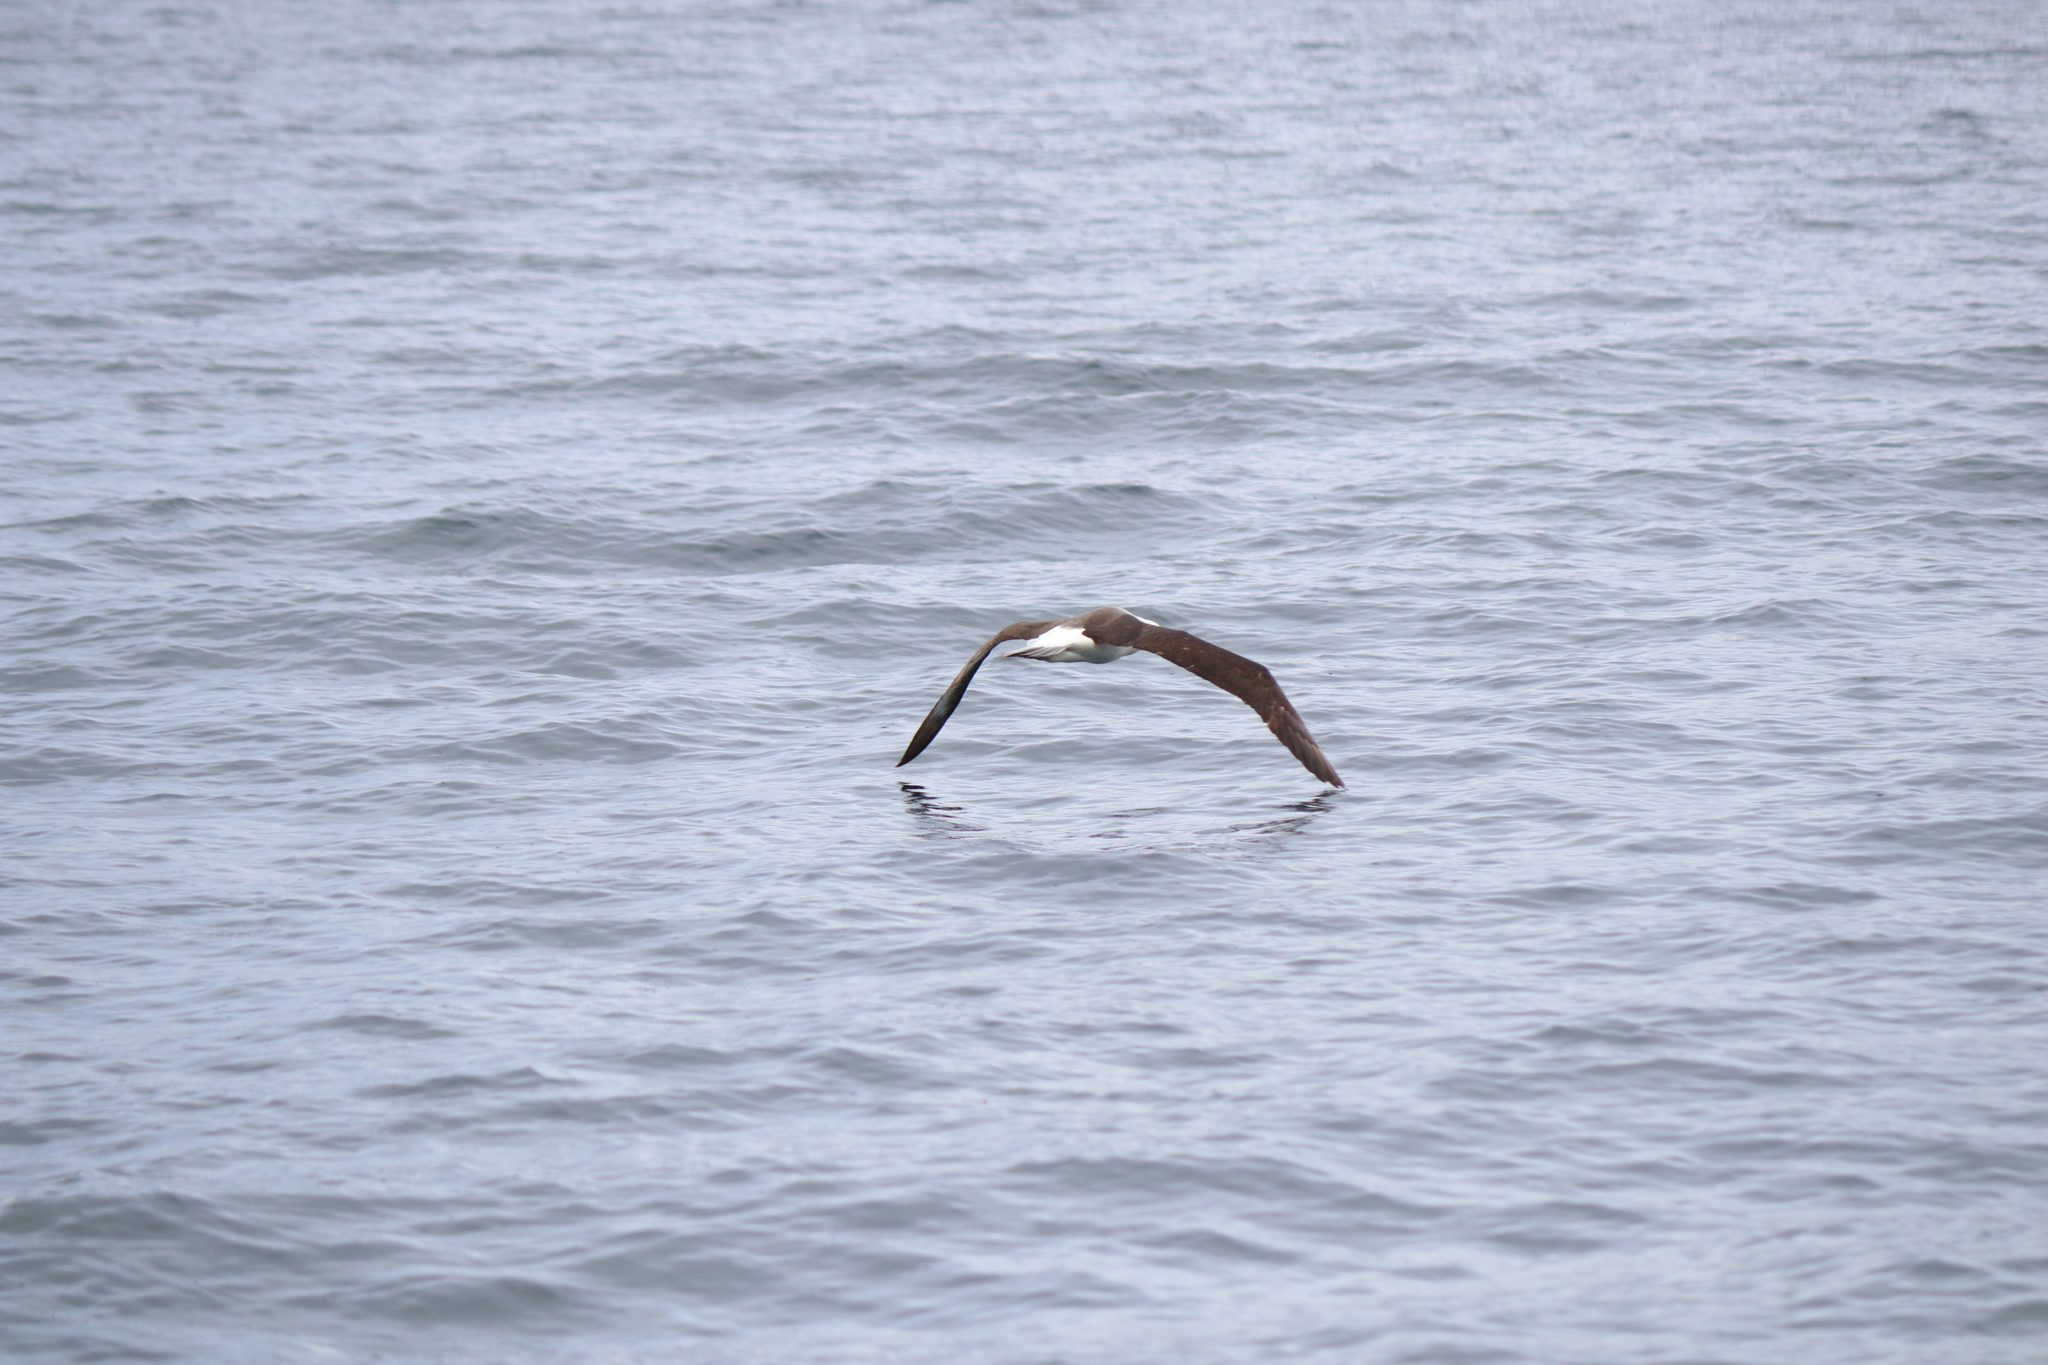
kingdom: Animalia
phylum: Chordata
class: Aves
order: Procellariiformes
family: Diomedeidae
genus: Thalassarche
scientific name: Thalassarche melanophris
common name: Black-browed albatross
